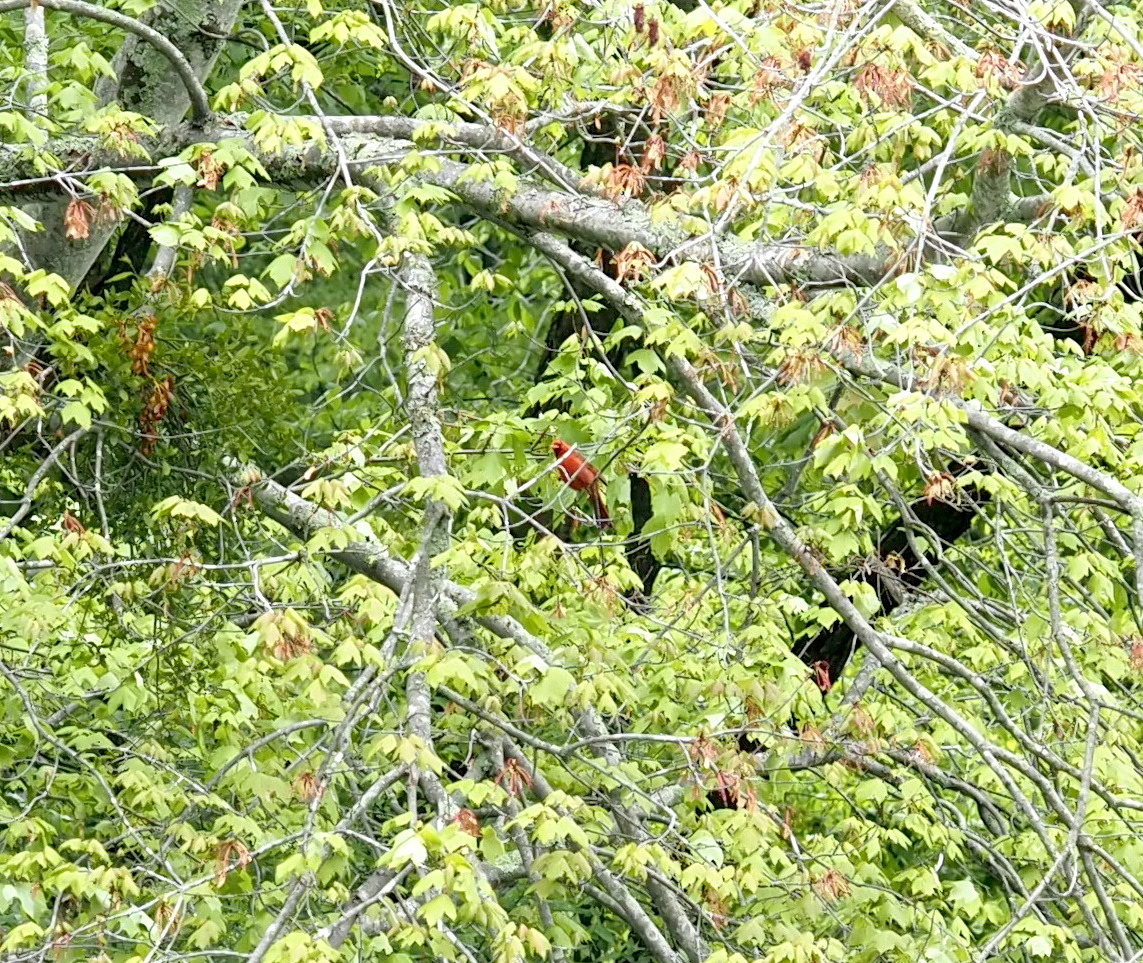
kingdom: Animalia
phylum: Chordata
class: Aves
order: Passeriformes
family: Cardinalidae
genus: Cardinalis
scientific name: Cardinalis cardinalis
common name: Northern cardinal
